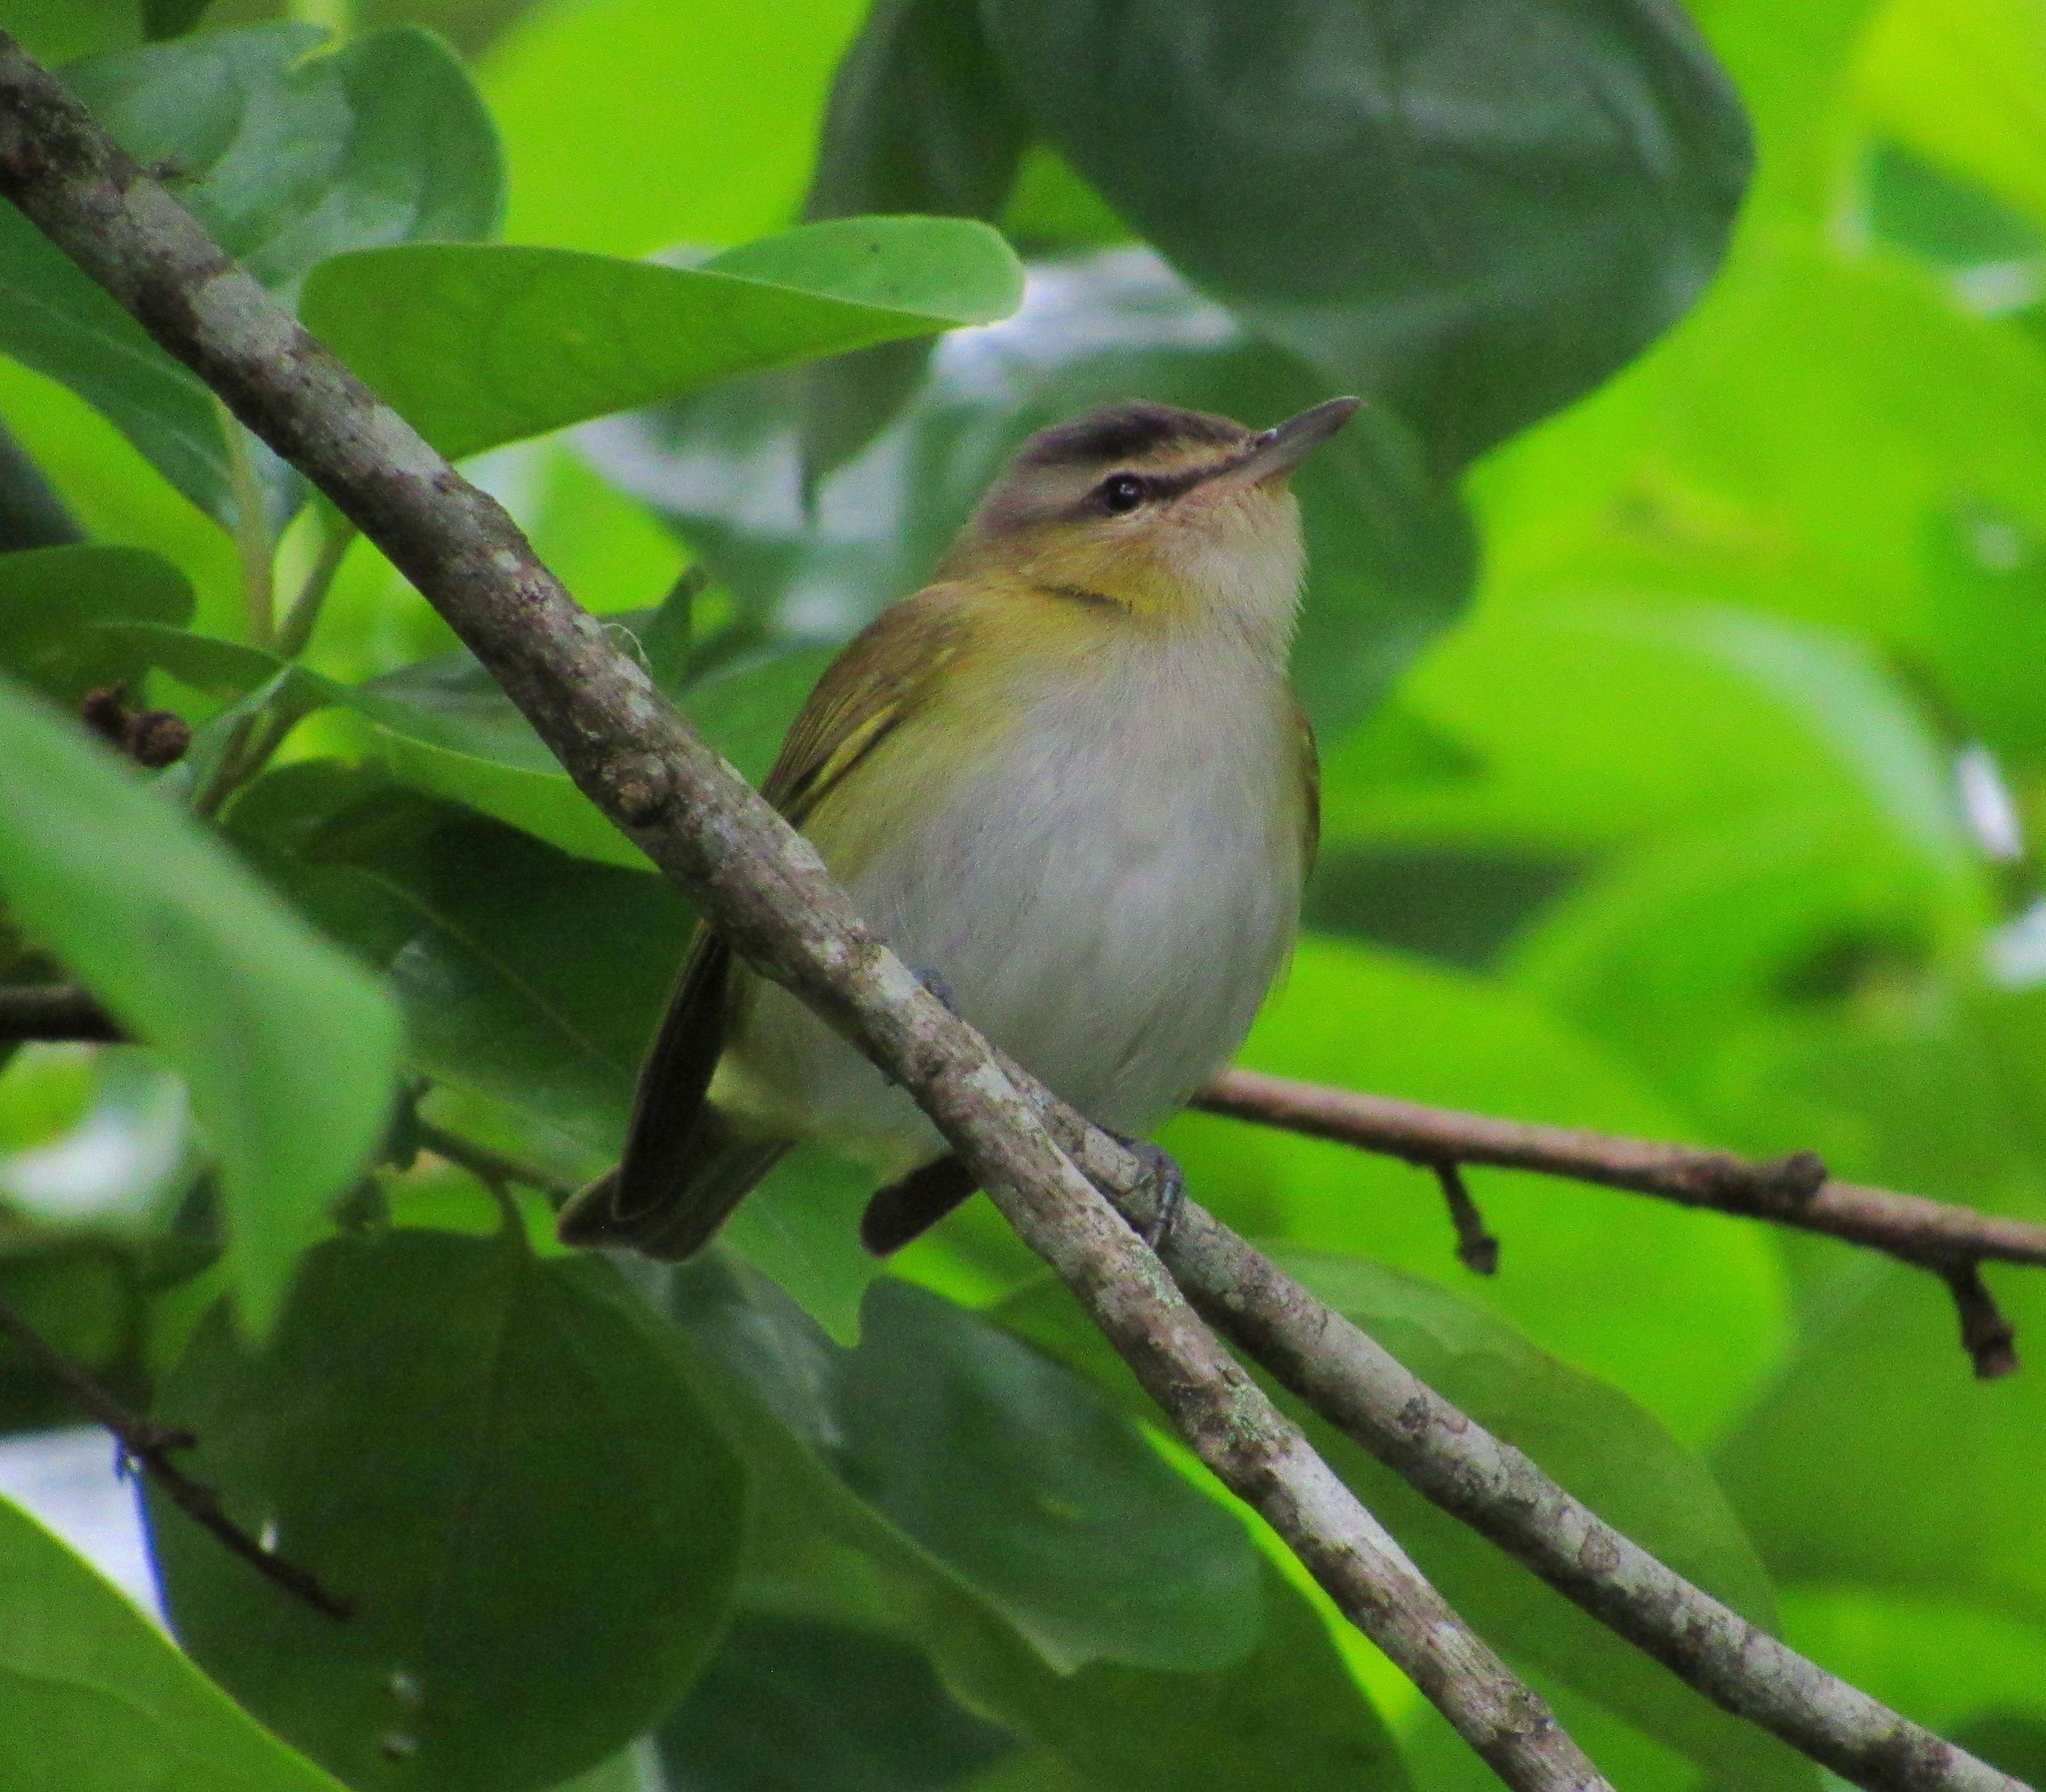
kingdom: Animalia
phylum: Chordata
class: Aves
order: Passeriformes
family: Vireonidae
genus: Vireo
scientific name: Vireo olivaceus
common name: Red-eyed vireo
